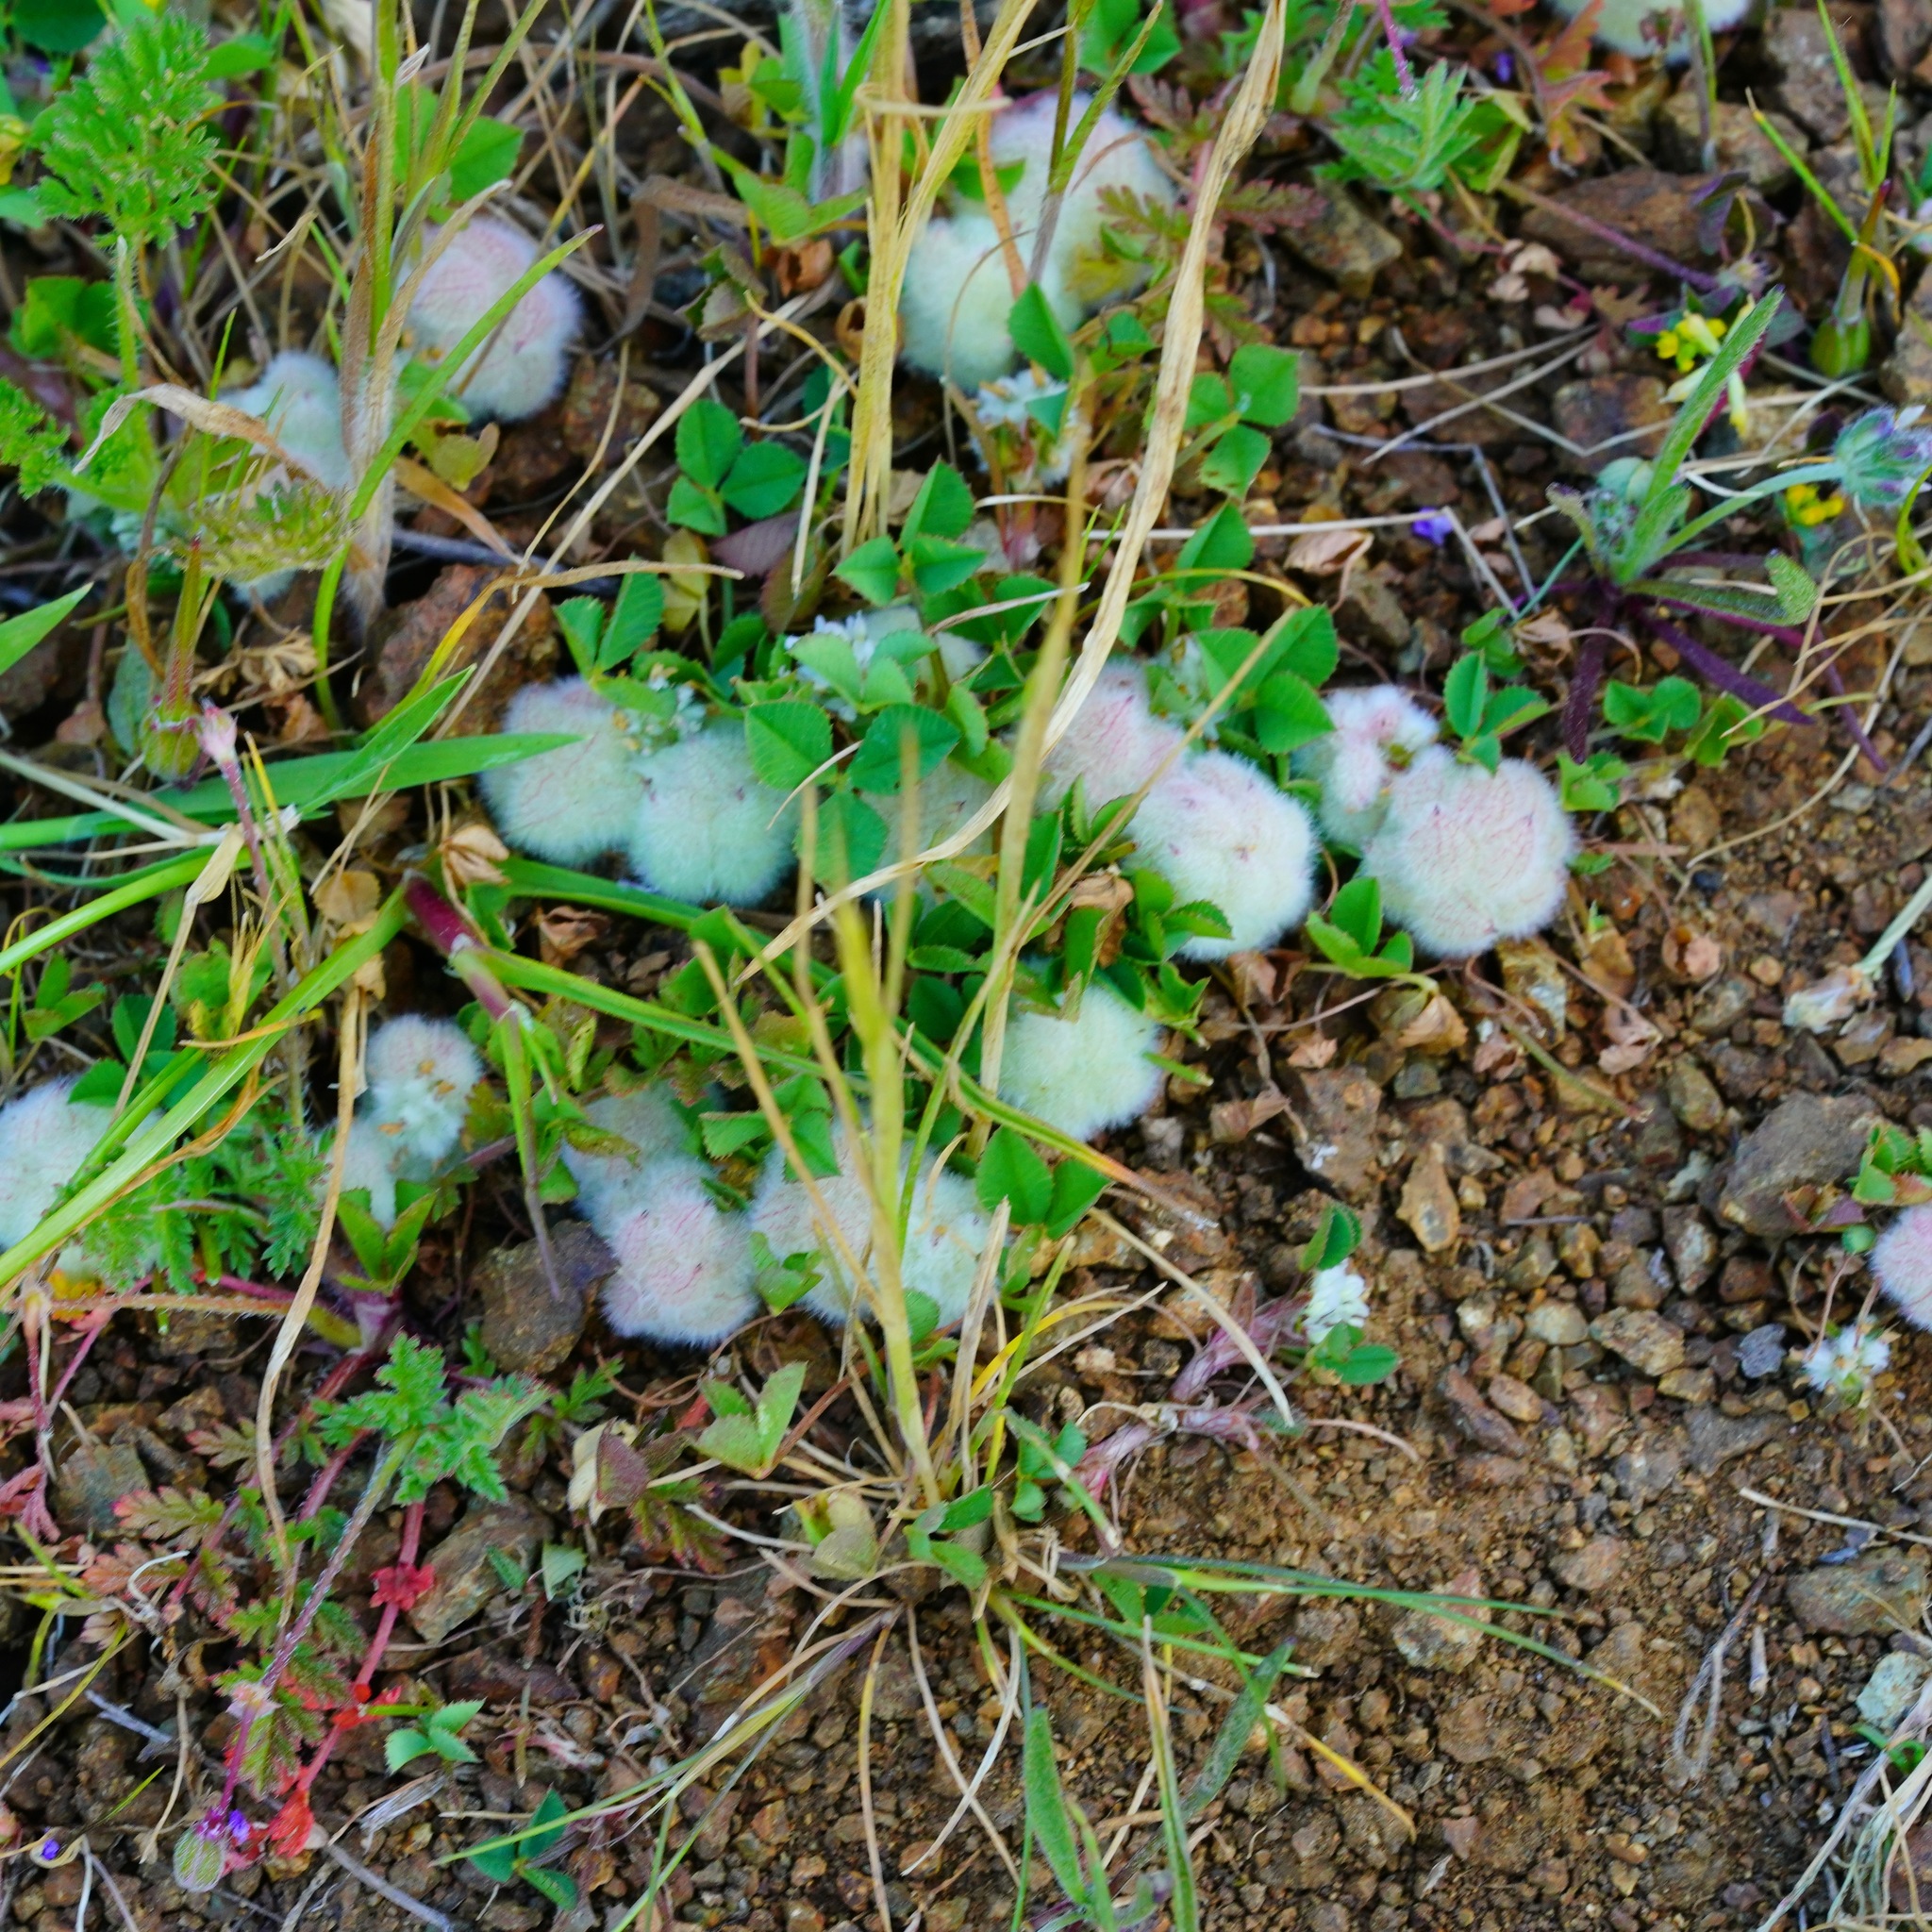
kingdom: Plantae
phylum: Tracheophyta
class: Magnoliopsida
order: Fabales
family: Fabaceae
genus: Trifolium
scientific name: Trifolium tomentosum
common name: Woolly clover
